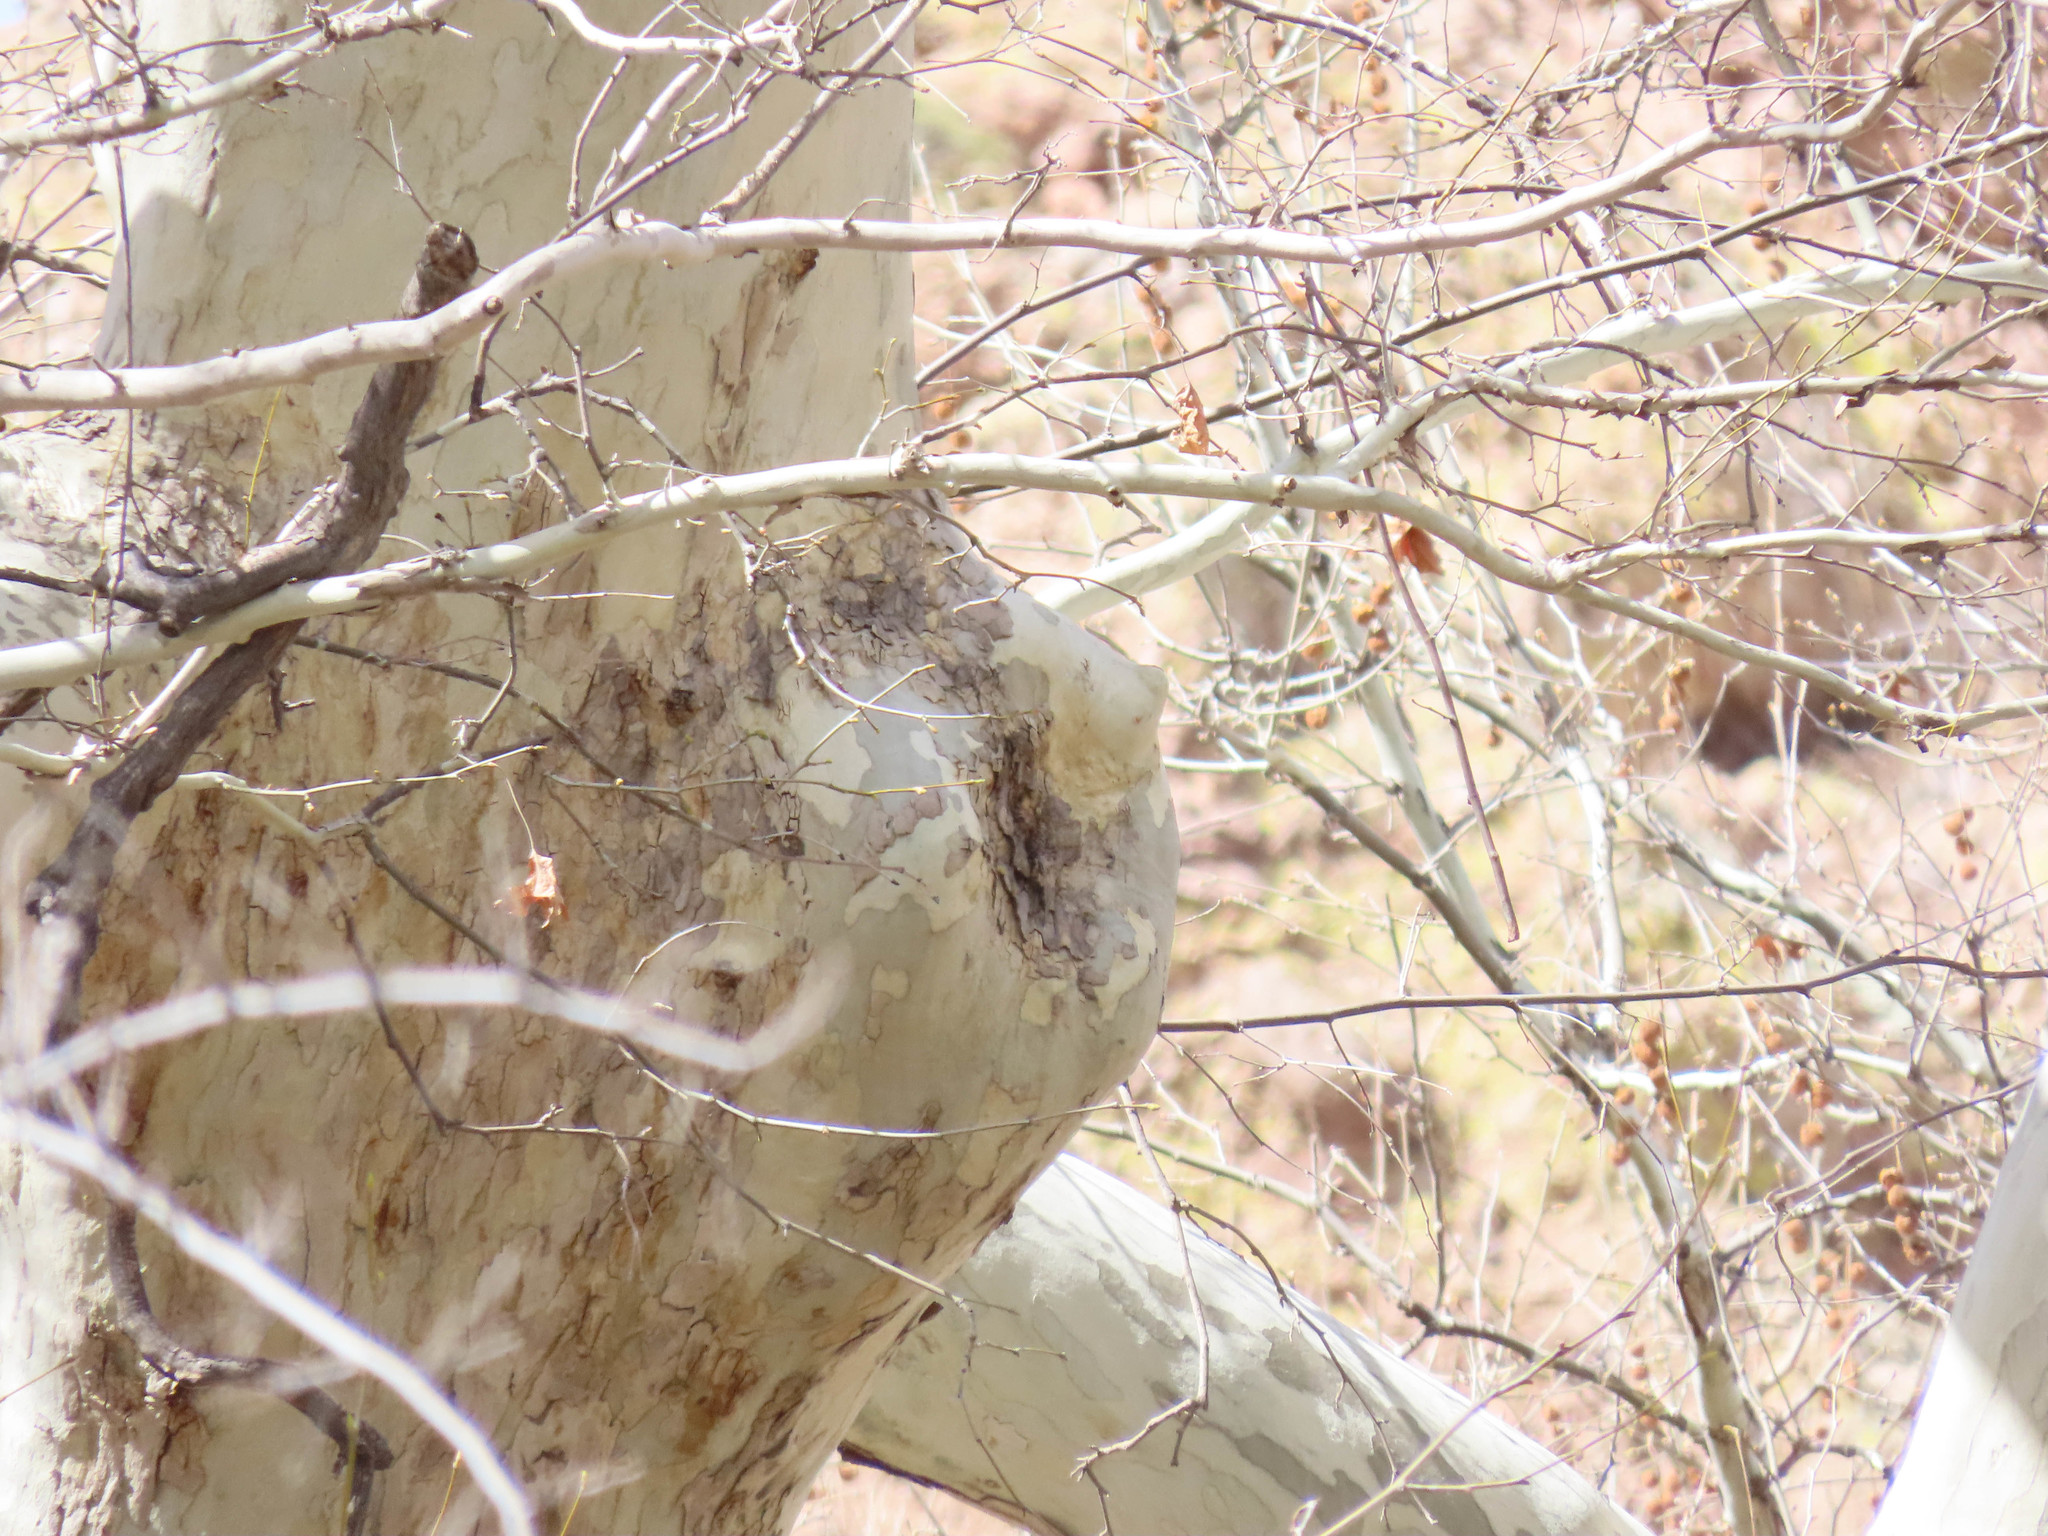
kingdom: Plantae
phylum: Tracheophyta
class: Magnoliopsida
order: Proteales
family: Platanaceae
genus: Platanus
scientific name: Platanus wrightii
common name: Arizona sycamore
